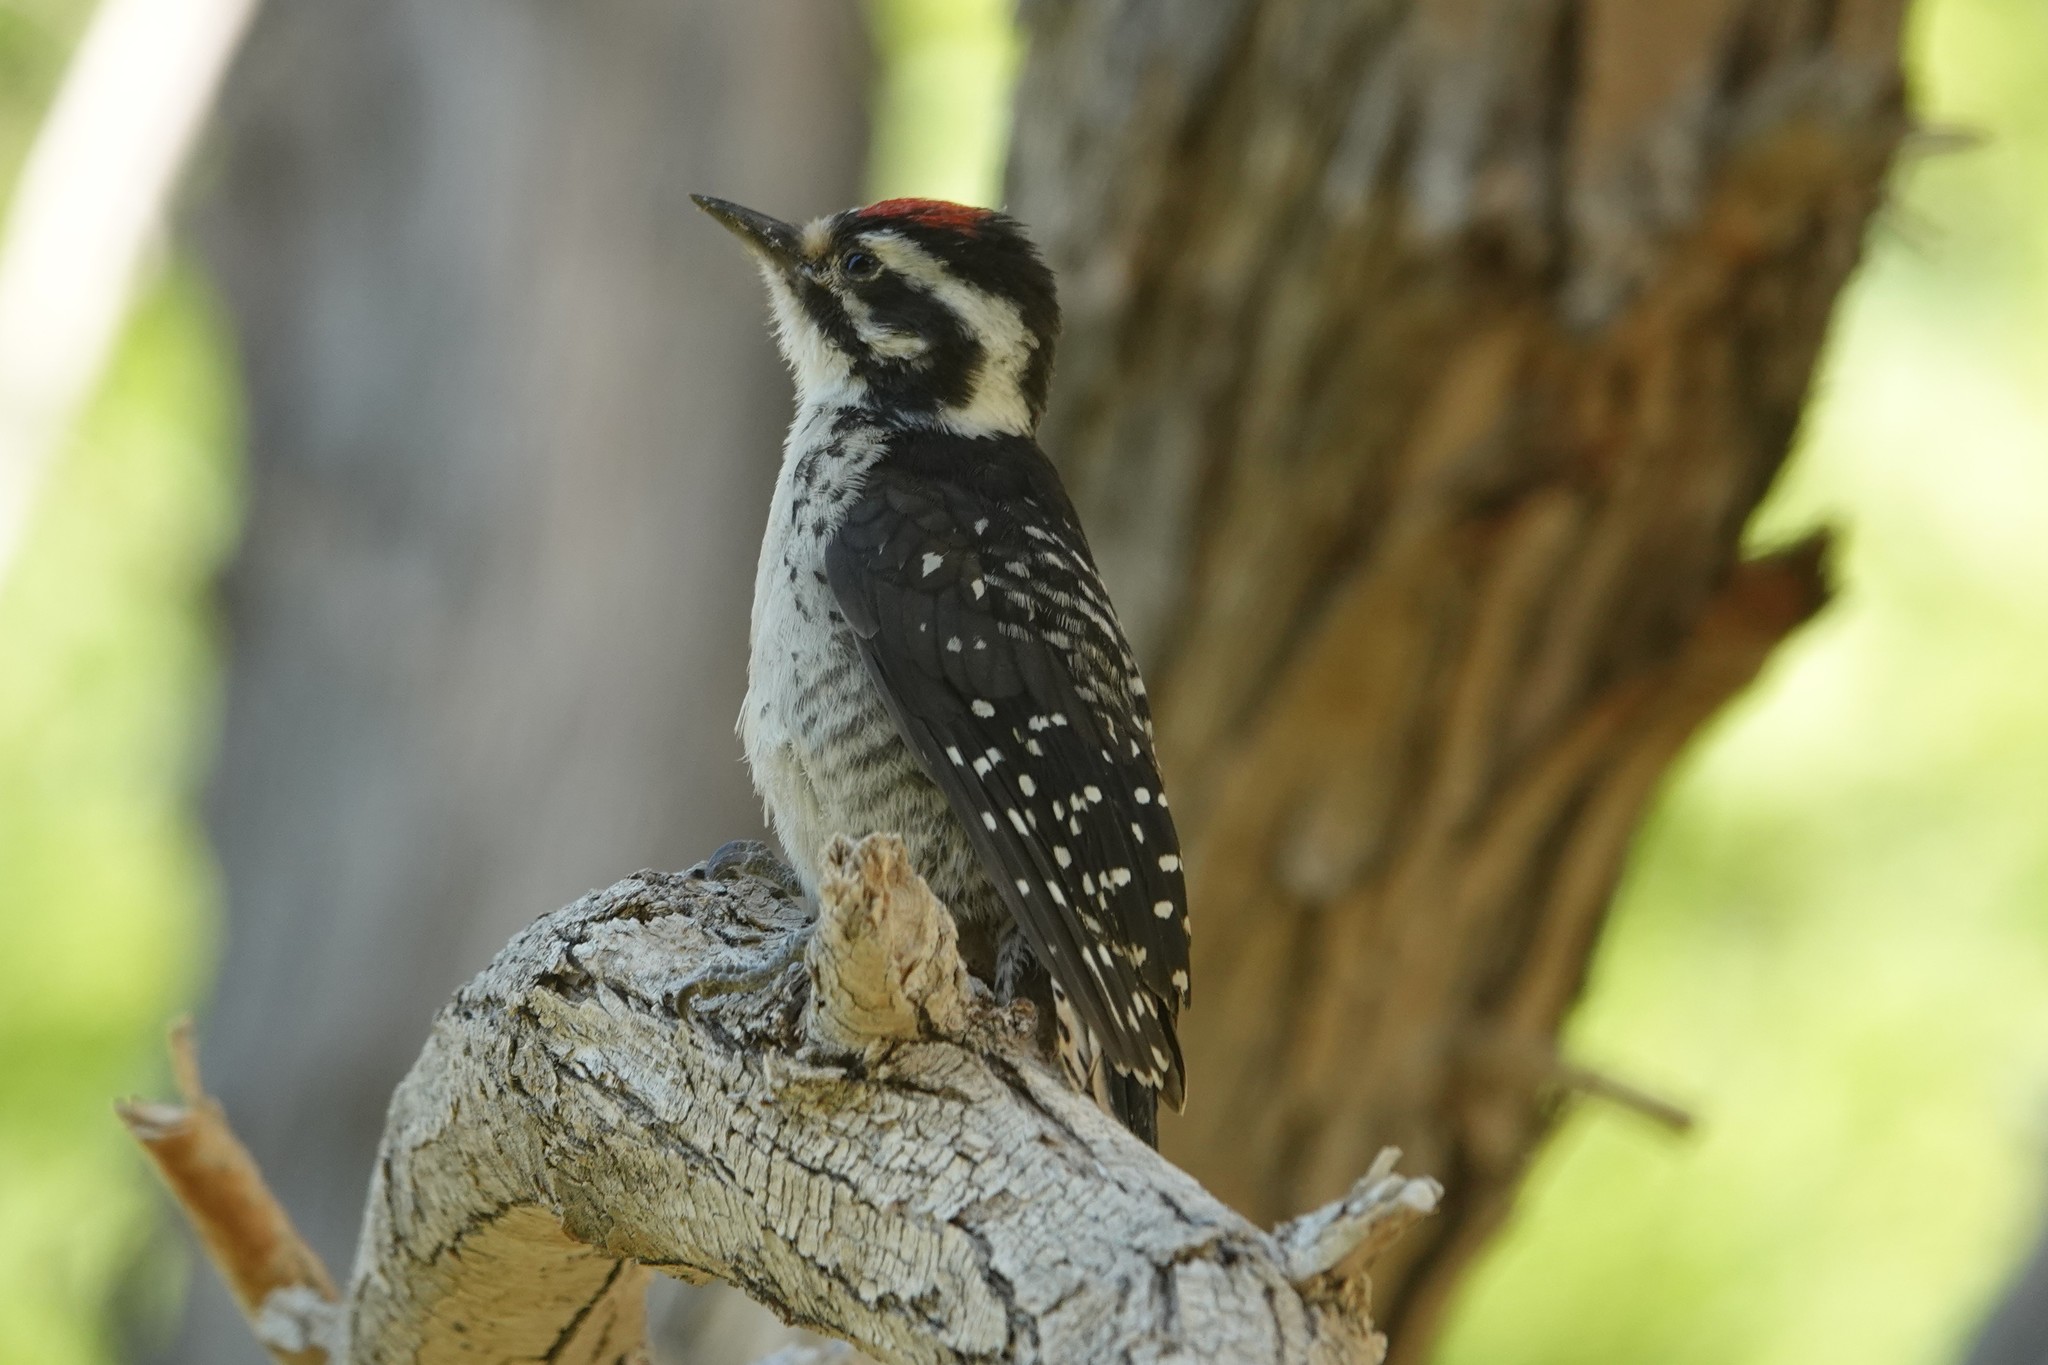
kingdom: Animalia
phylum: Chordata
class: Aves
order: Piciformes
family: Picidae
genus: Dryobates
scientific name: Dryobates nuttallii
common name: Nuttall's woodpecker
